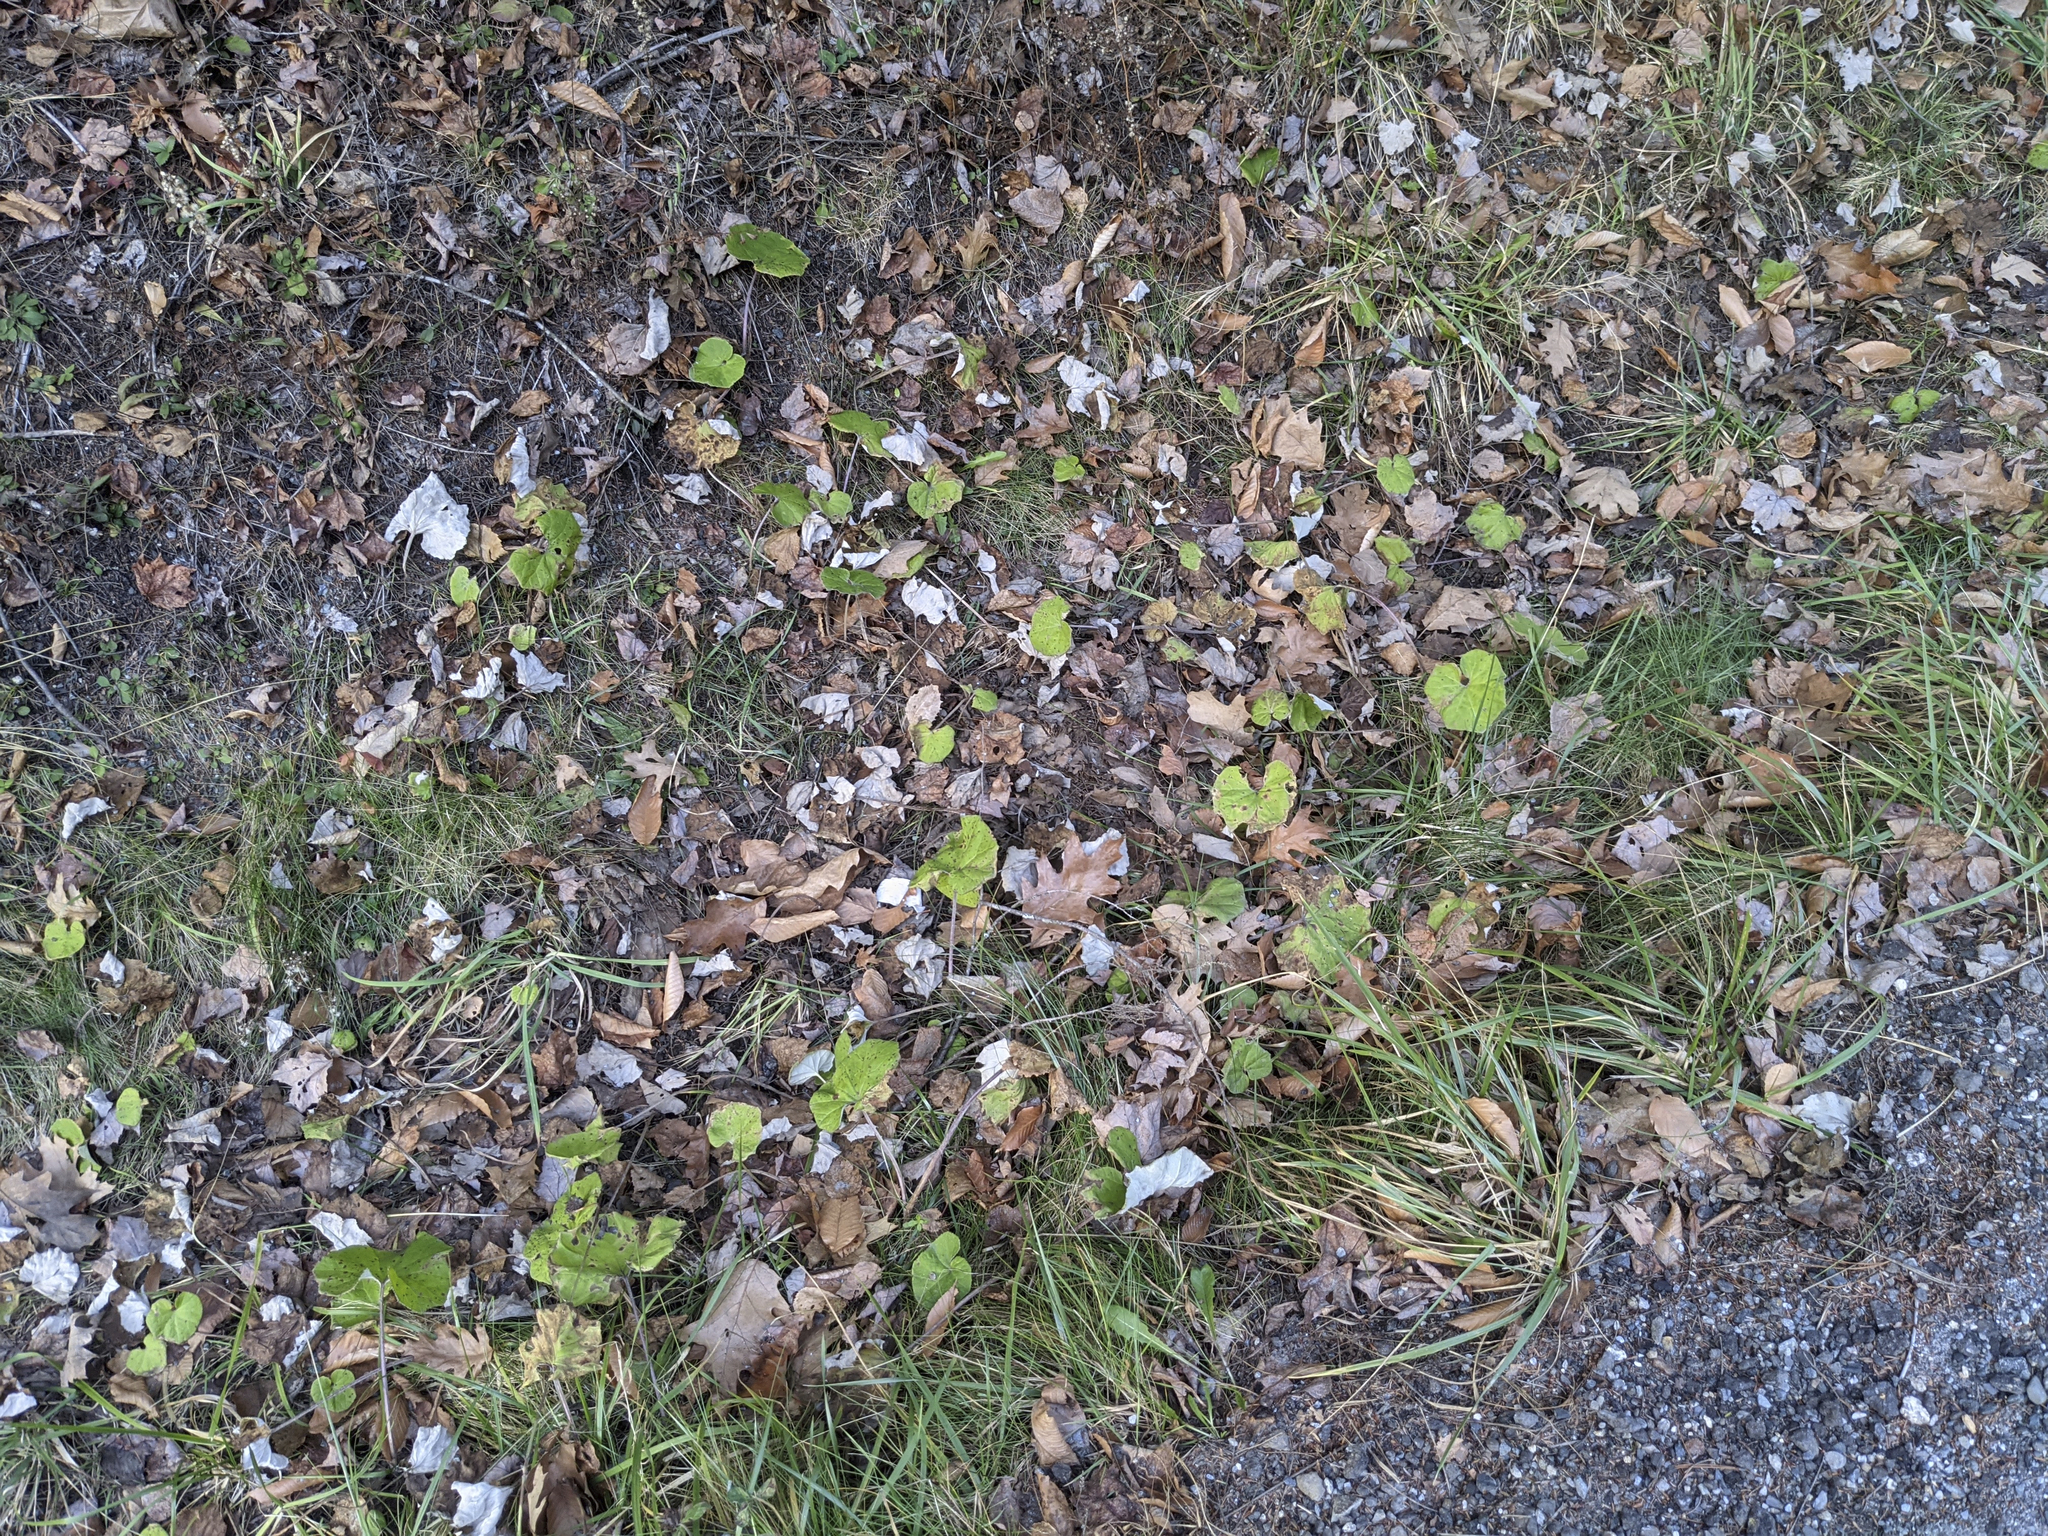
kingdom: Plantae
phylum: Tracheophyta
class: Magnoliopsida
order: Asterales
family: Asteraceae
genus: Tussilago
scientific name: Tussilago farfara
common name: Coltsfoot
